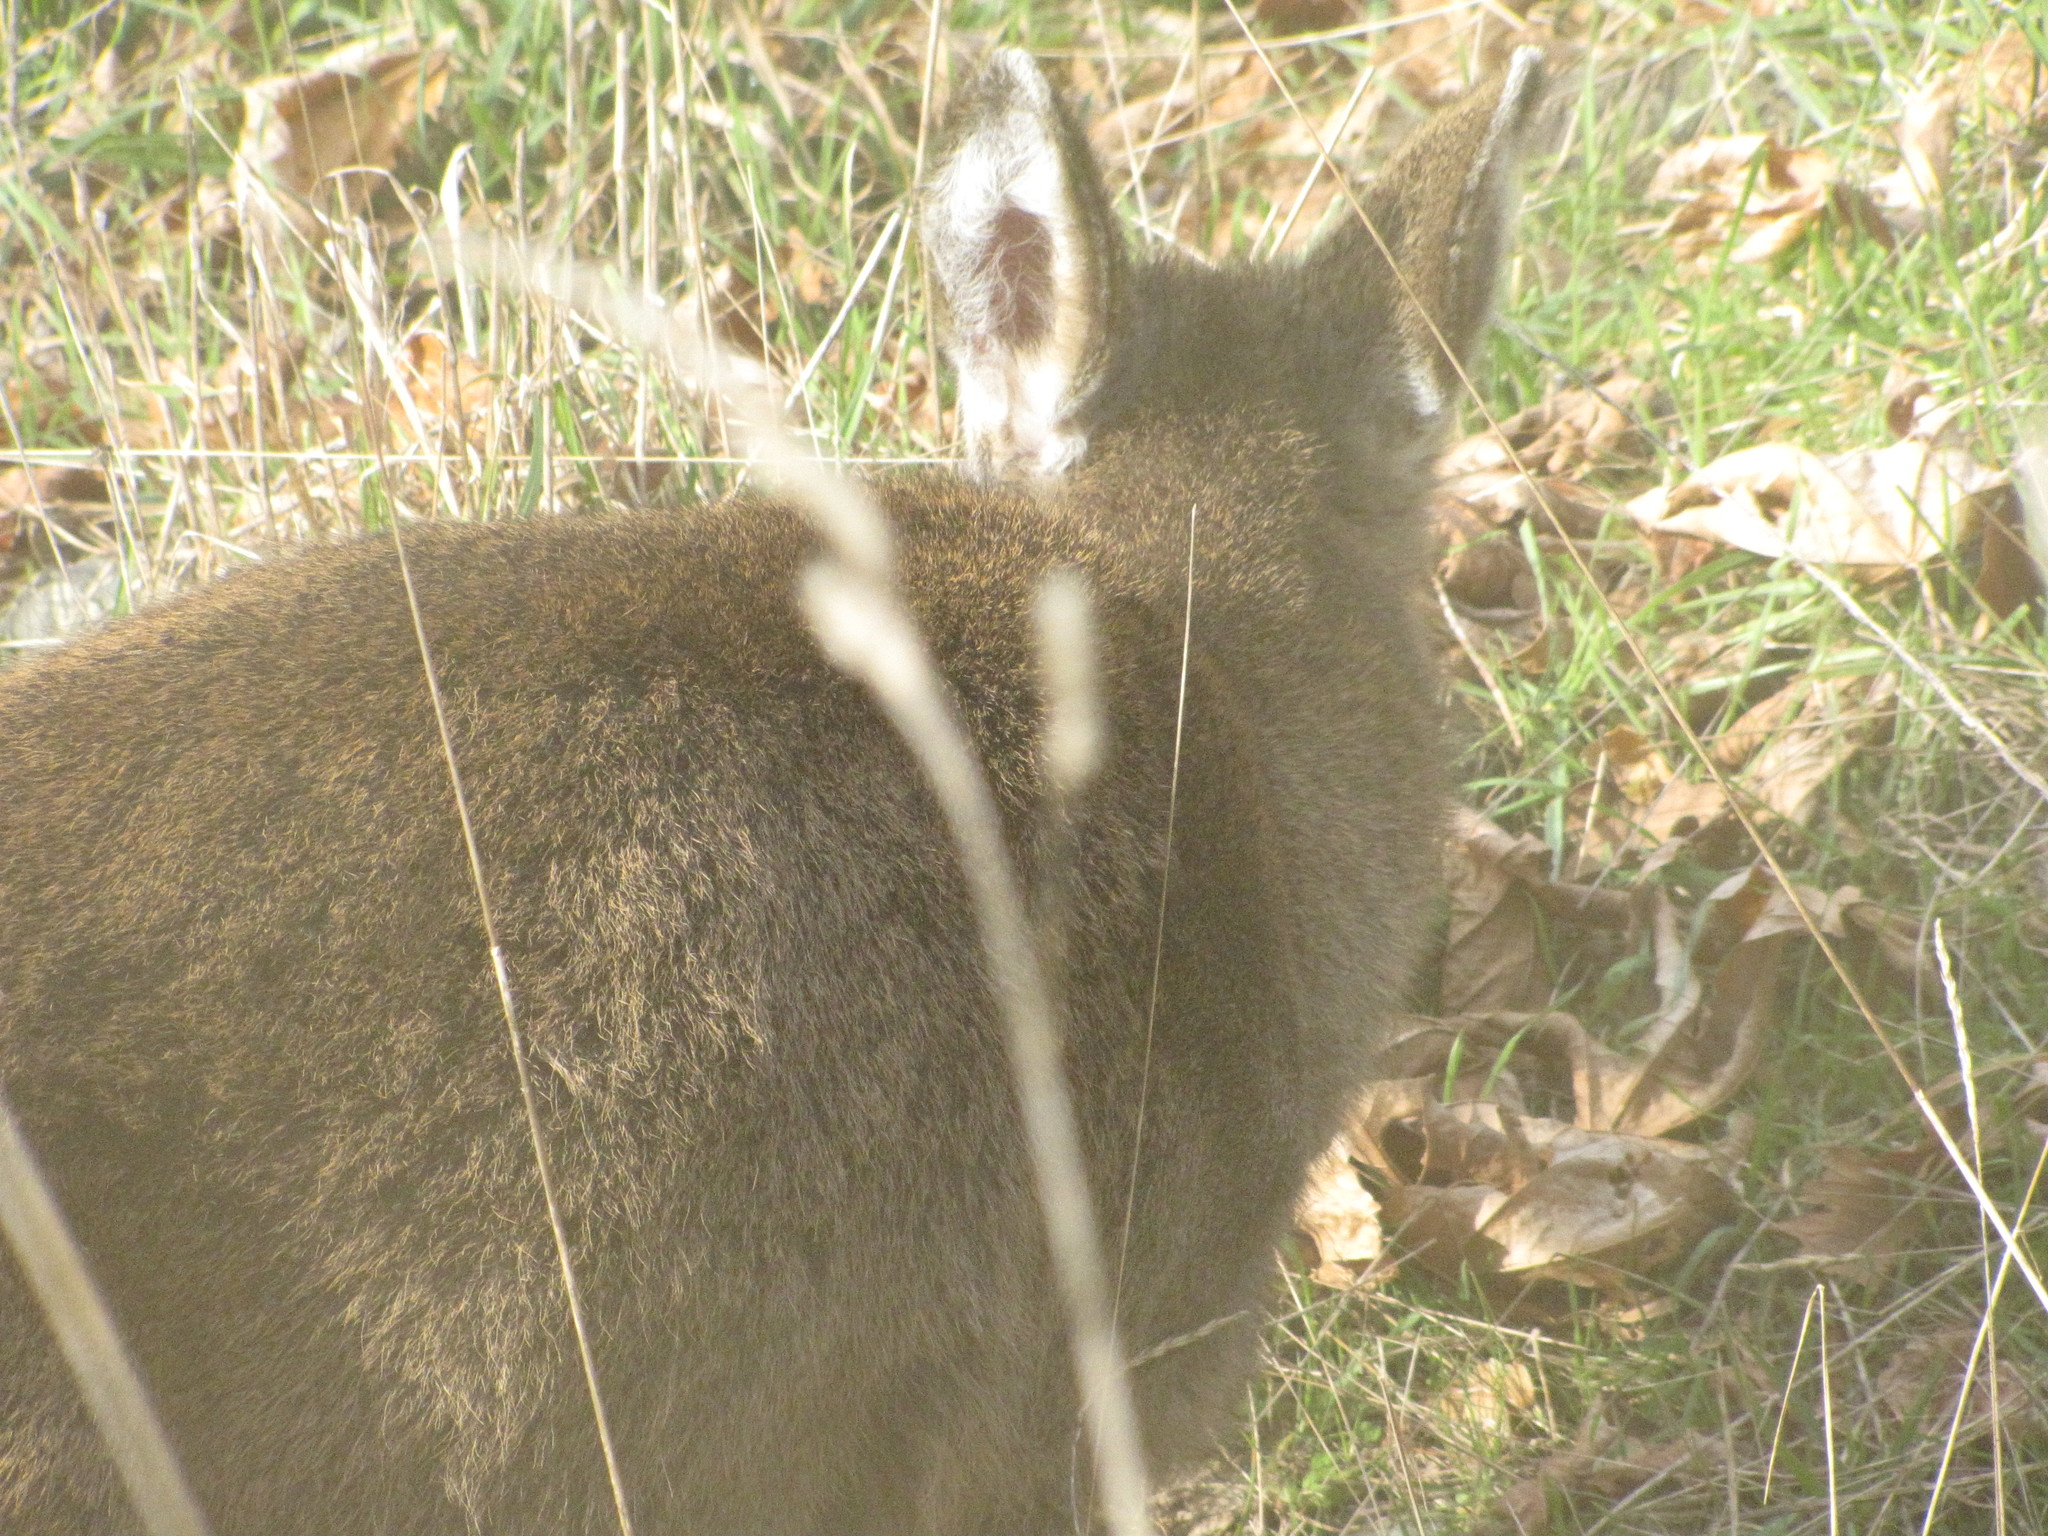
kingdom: Animalia
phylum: Chordata
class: Mammalia
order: Artiodactyla
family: Cervidae
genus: Odocoileus
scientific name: Odocoileus hemionus
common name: Mule deer
